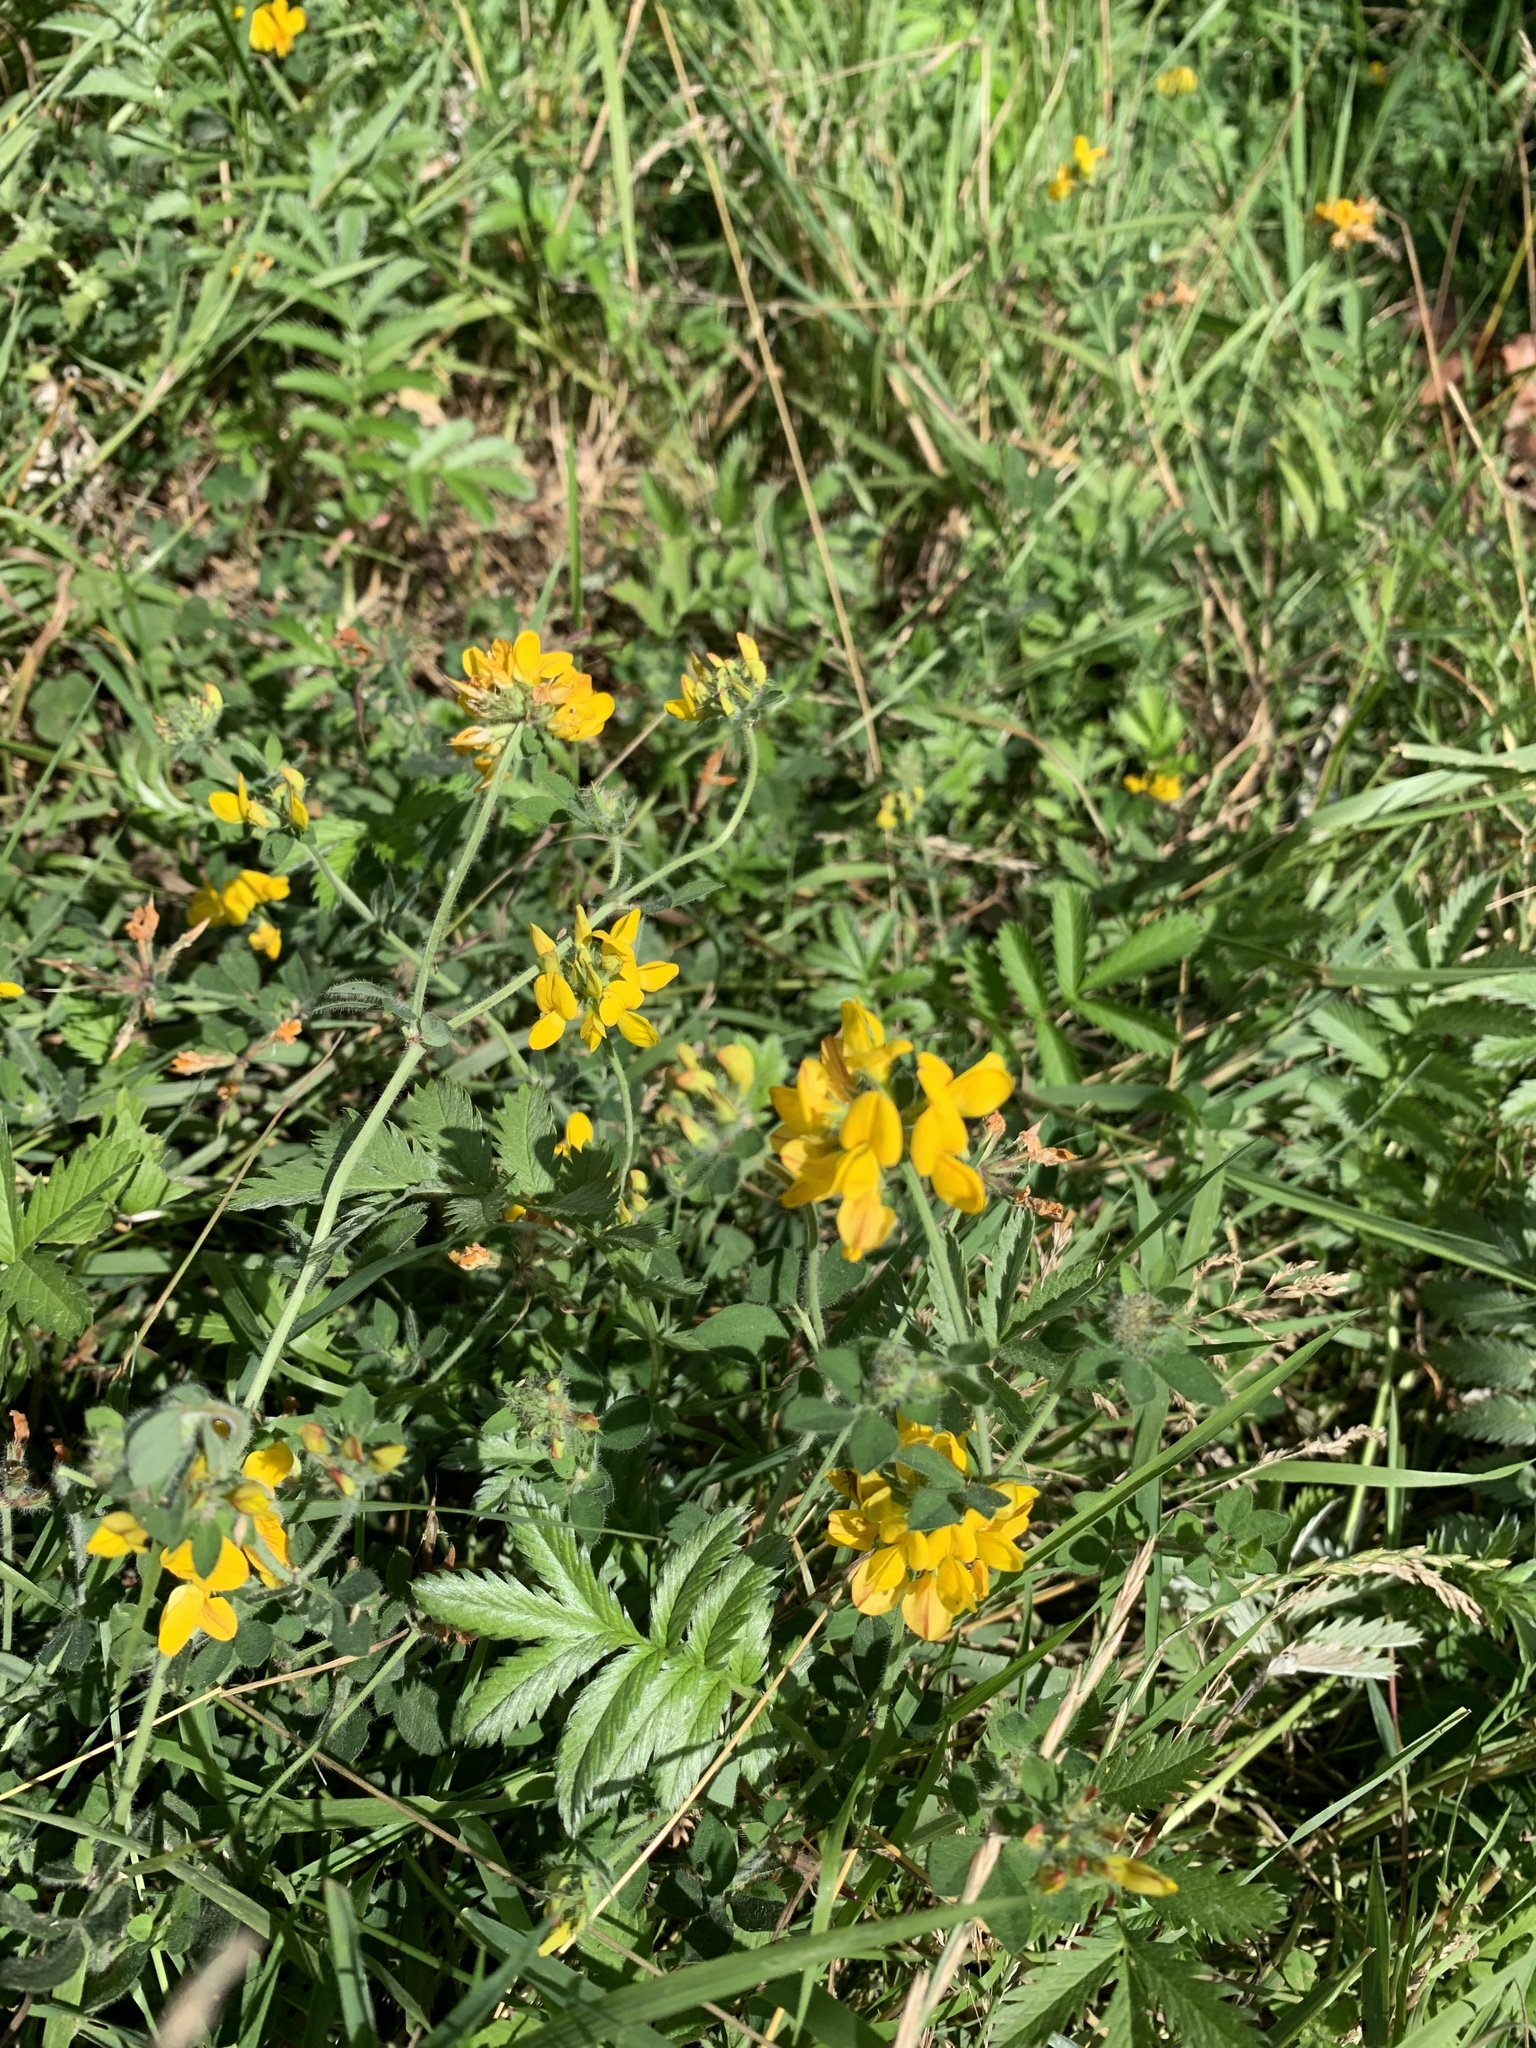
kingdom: Plantae
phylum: Tracheophyta
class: Magnoliopsida
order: Fabales
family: Fabaceae
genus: Lotus
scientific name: Lotus pedunculatus
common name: Greater birdsfoot-trefoil
